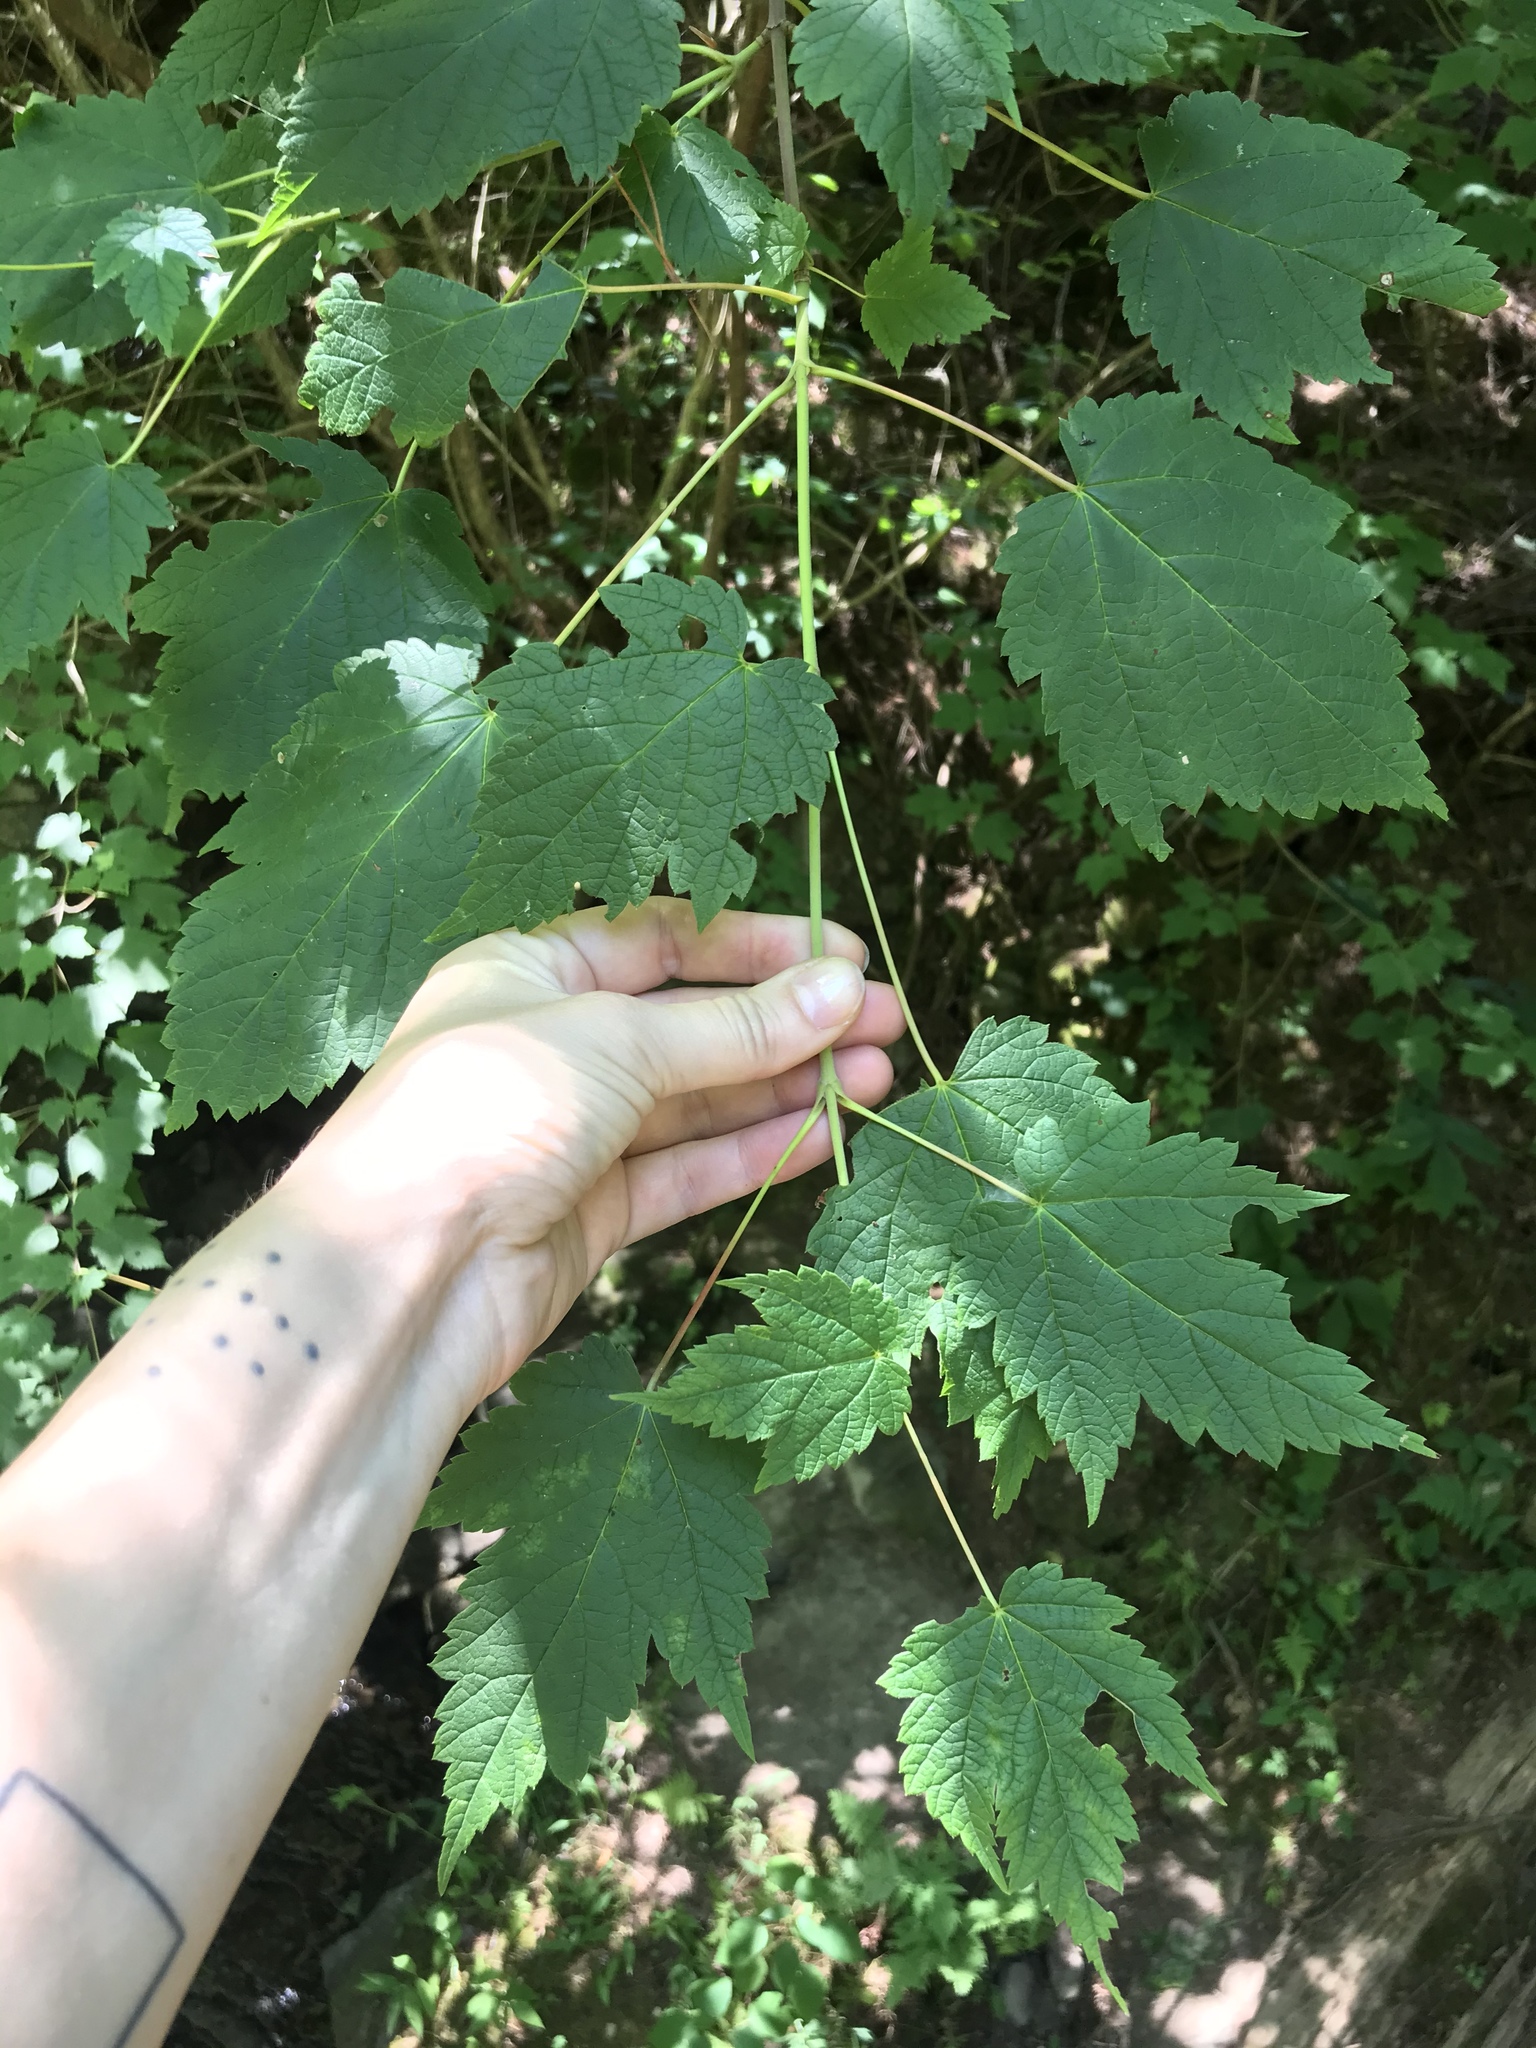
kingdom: Plantae
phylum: Tracheophyta
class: Magnoliopsida
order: Sapindales
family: Sapindaceae
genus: Acer
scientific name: Acer spicatum
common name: Mountain maple
